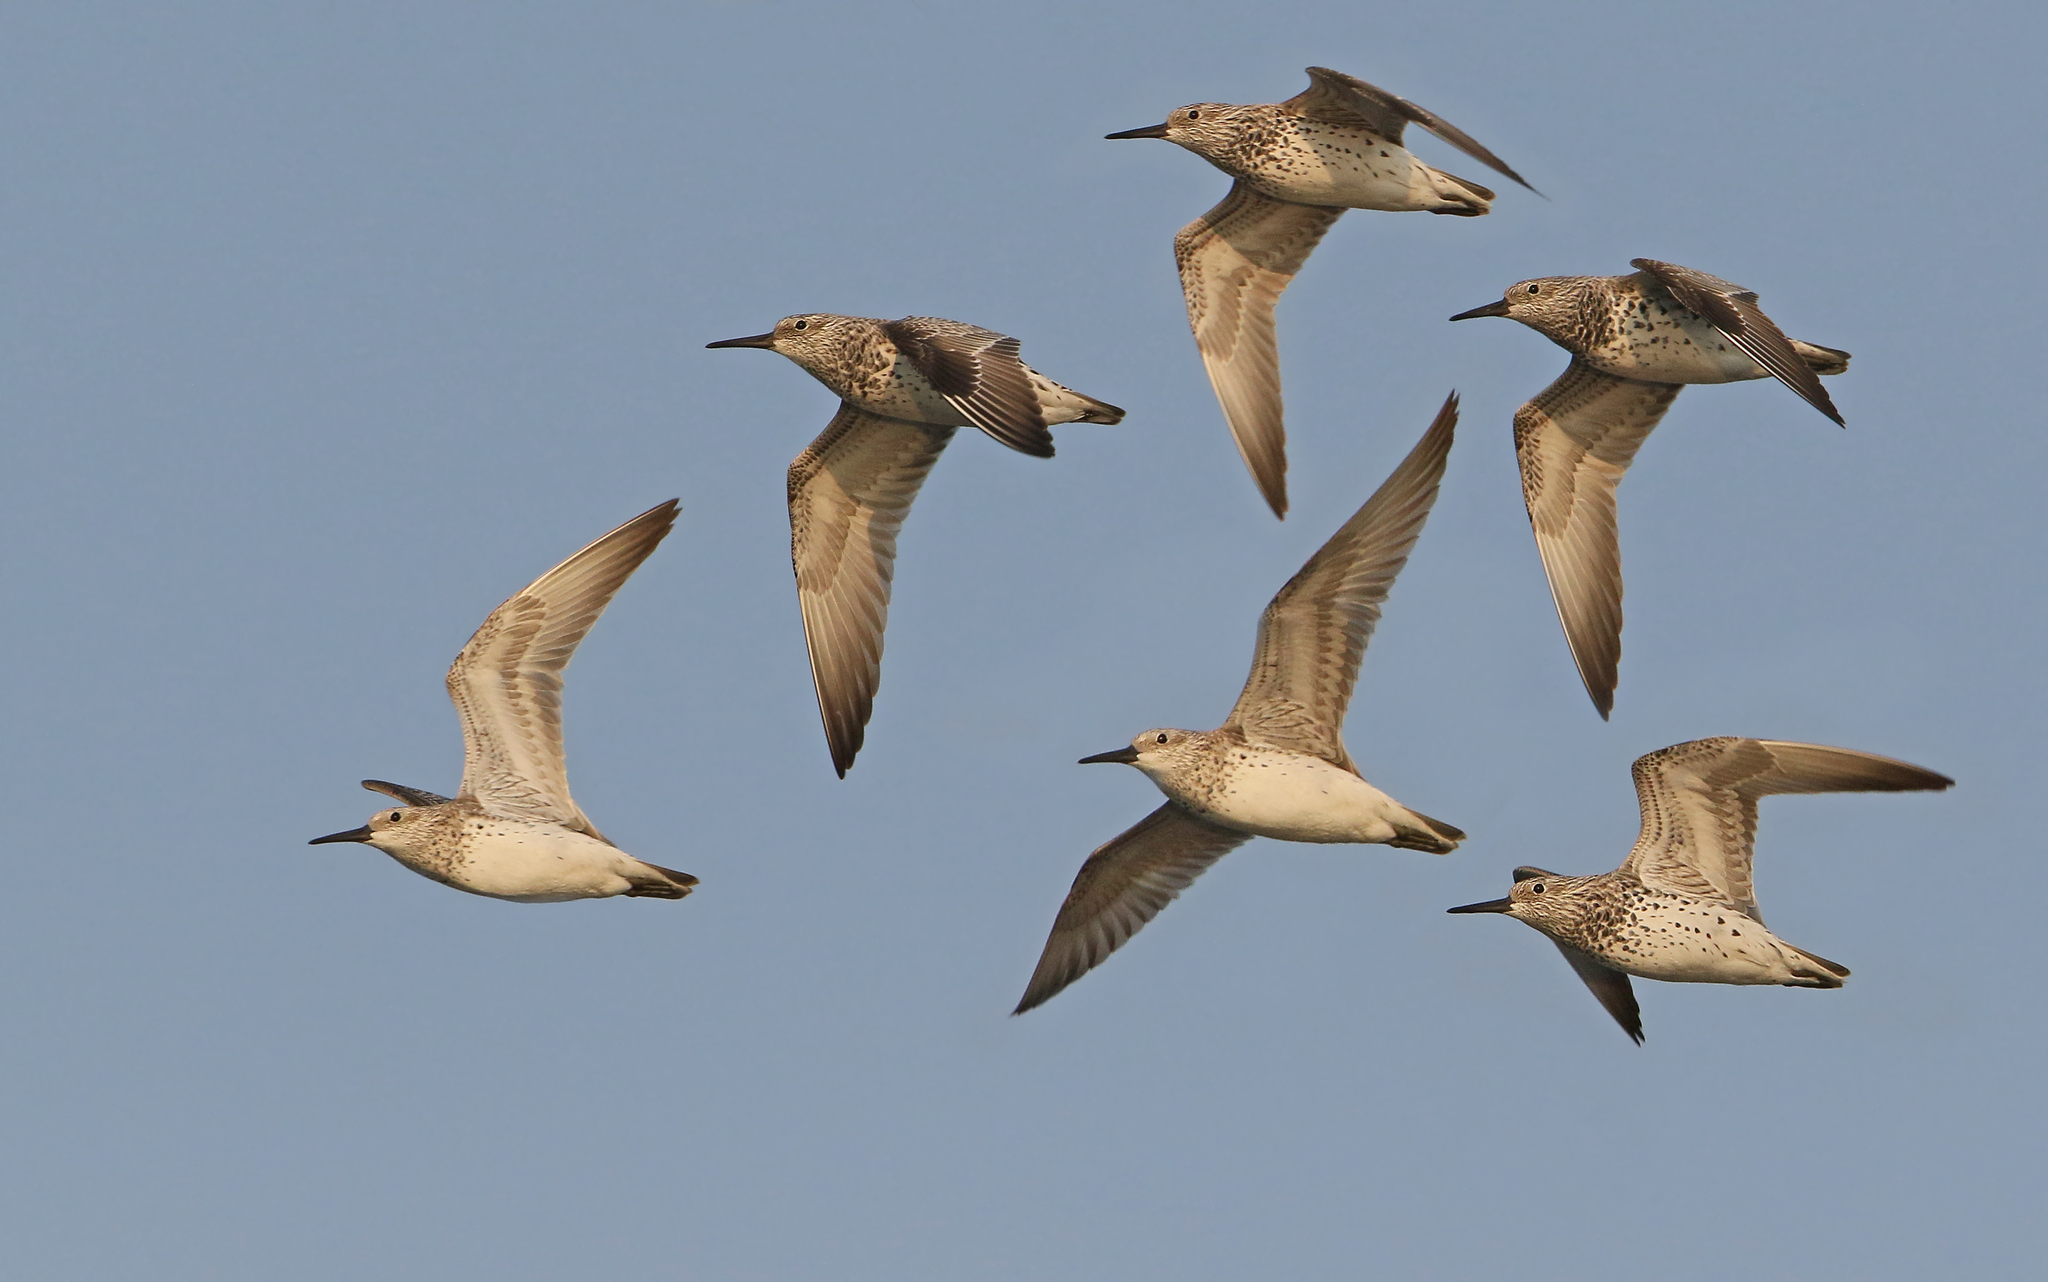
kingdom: Animalia
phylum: Chordata
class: Aves
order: Charadriiformes
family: Scolopacidae
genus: Calidris
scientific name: Calidris tenuirostris
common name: Great knot
